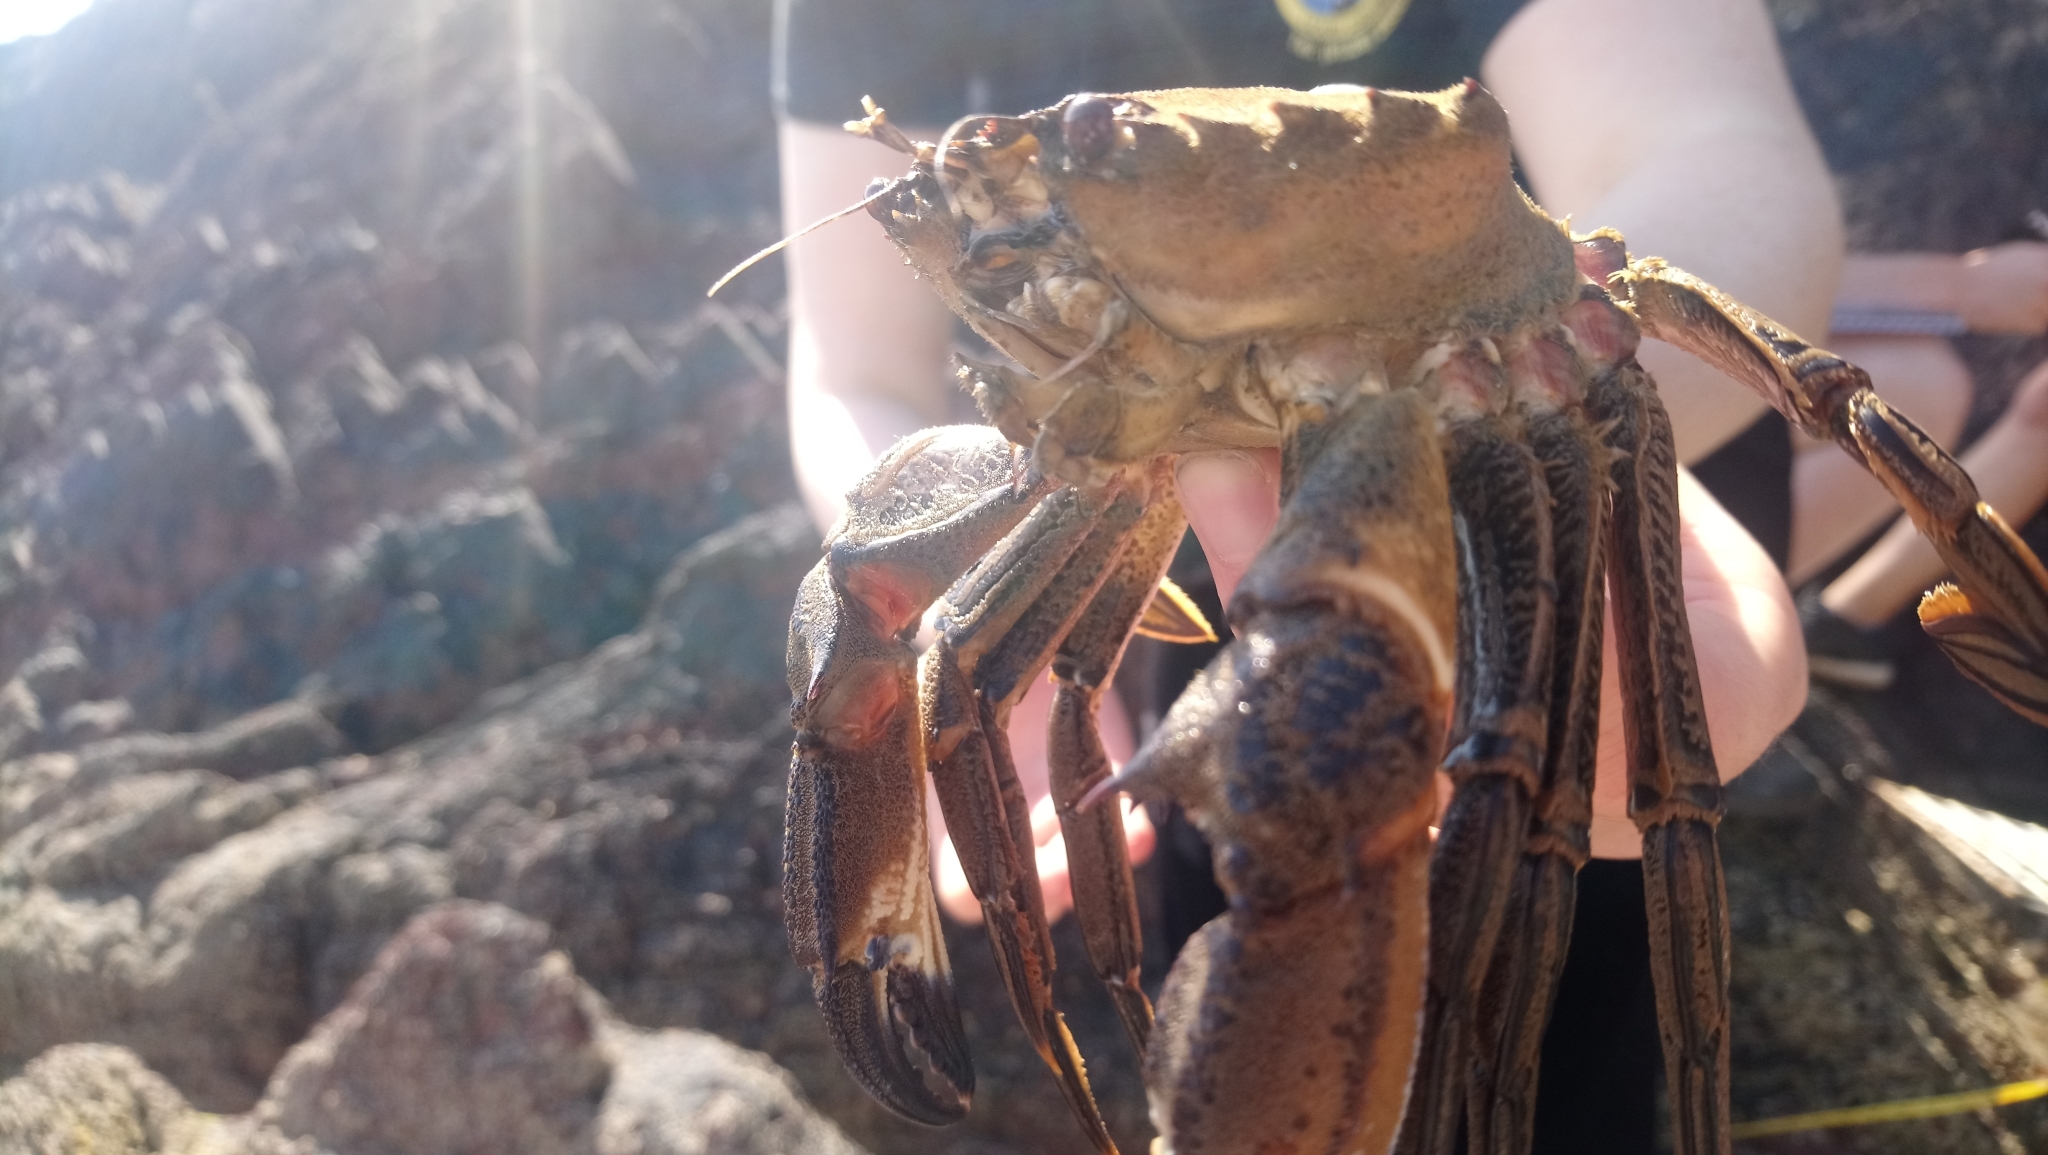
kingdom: Animalia
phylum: Arthropoda
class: Malacostraca
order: Decapoda
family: Polybiidae
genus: Necora
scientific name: Necora puber
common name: Velvet swimming crab
